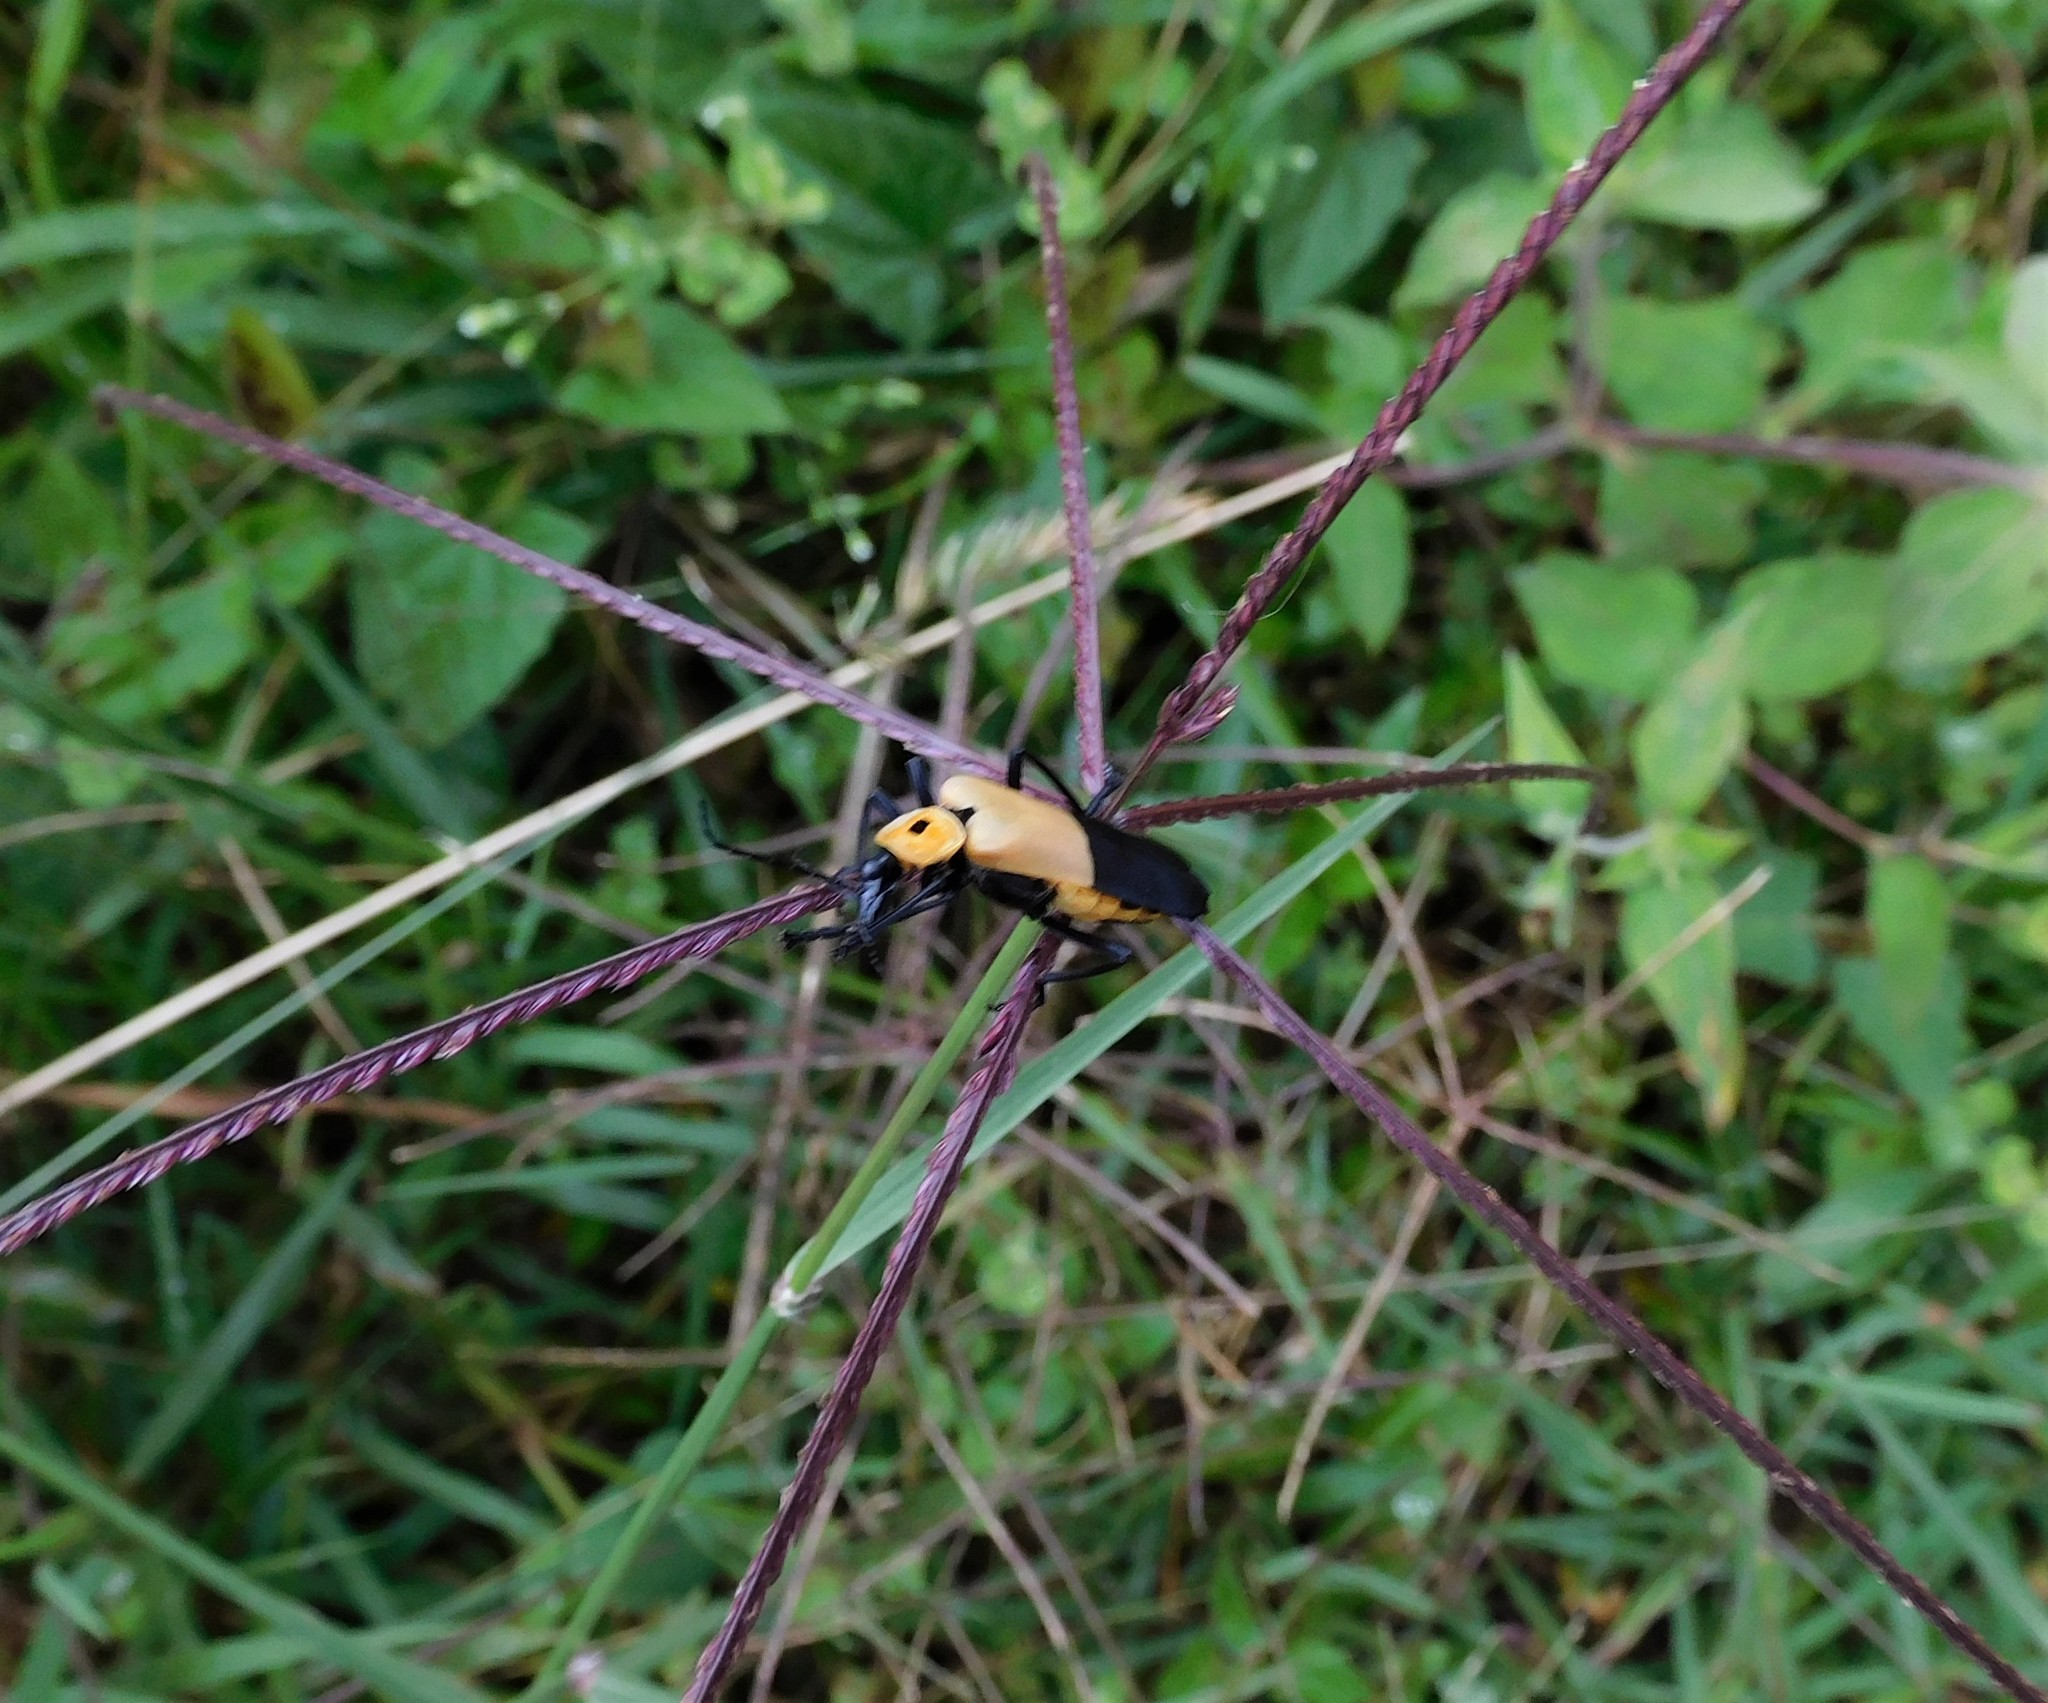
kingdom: Animalia
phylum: Arthropoda
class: Insecta
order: Coleoptera
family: Cantharidae
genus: Chauliognathus
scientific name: Chauliognathus
